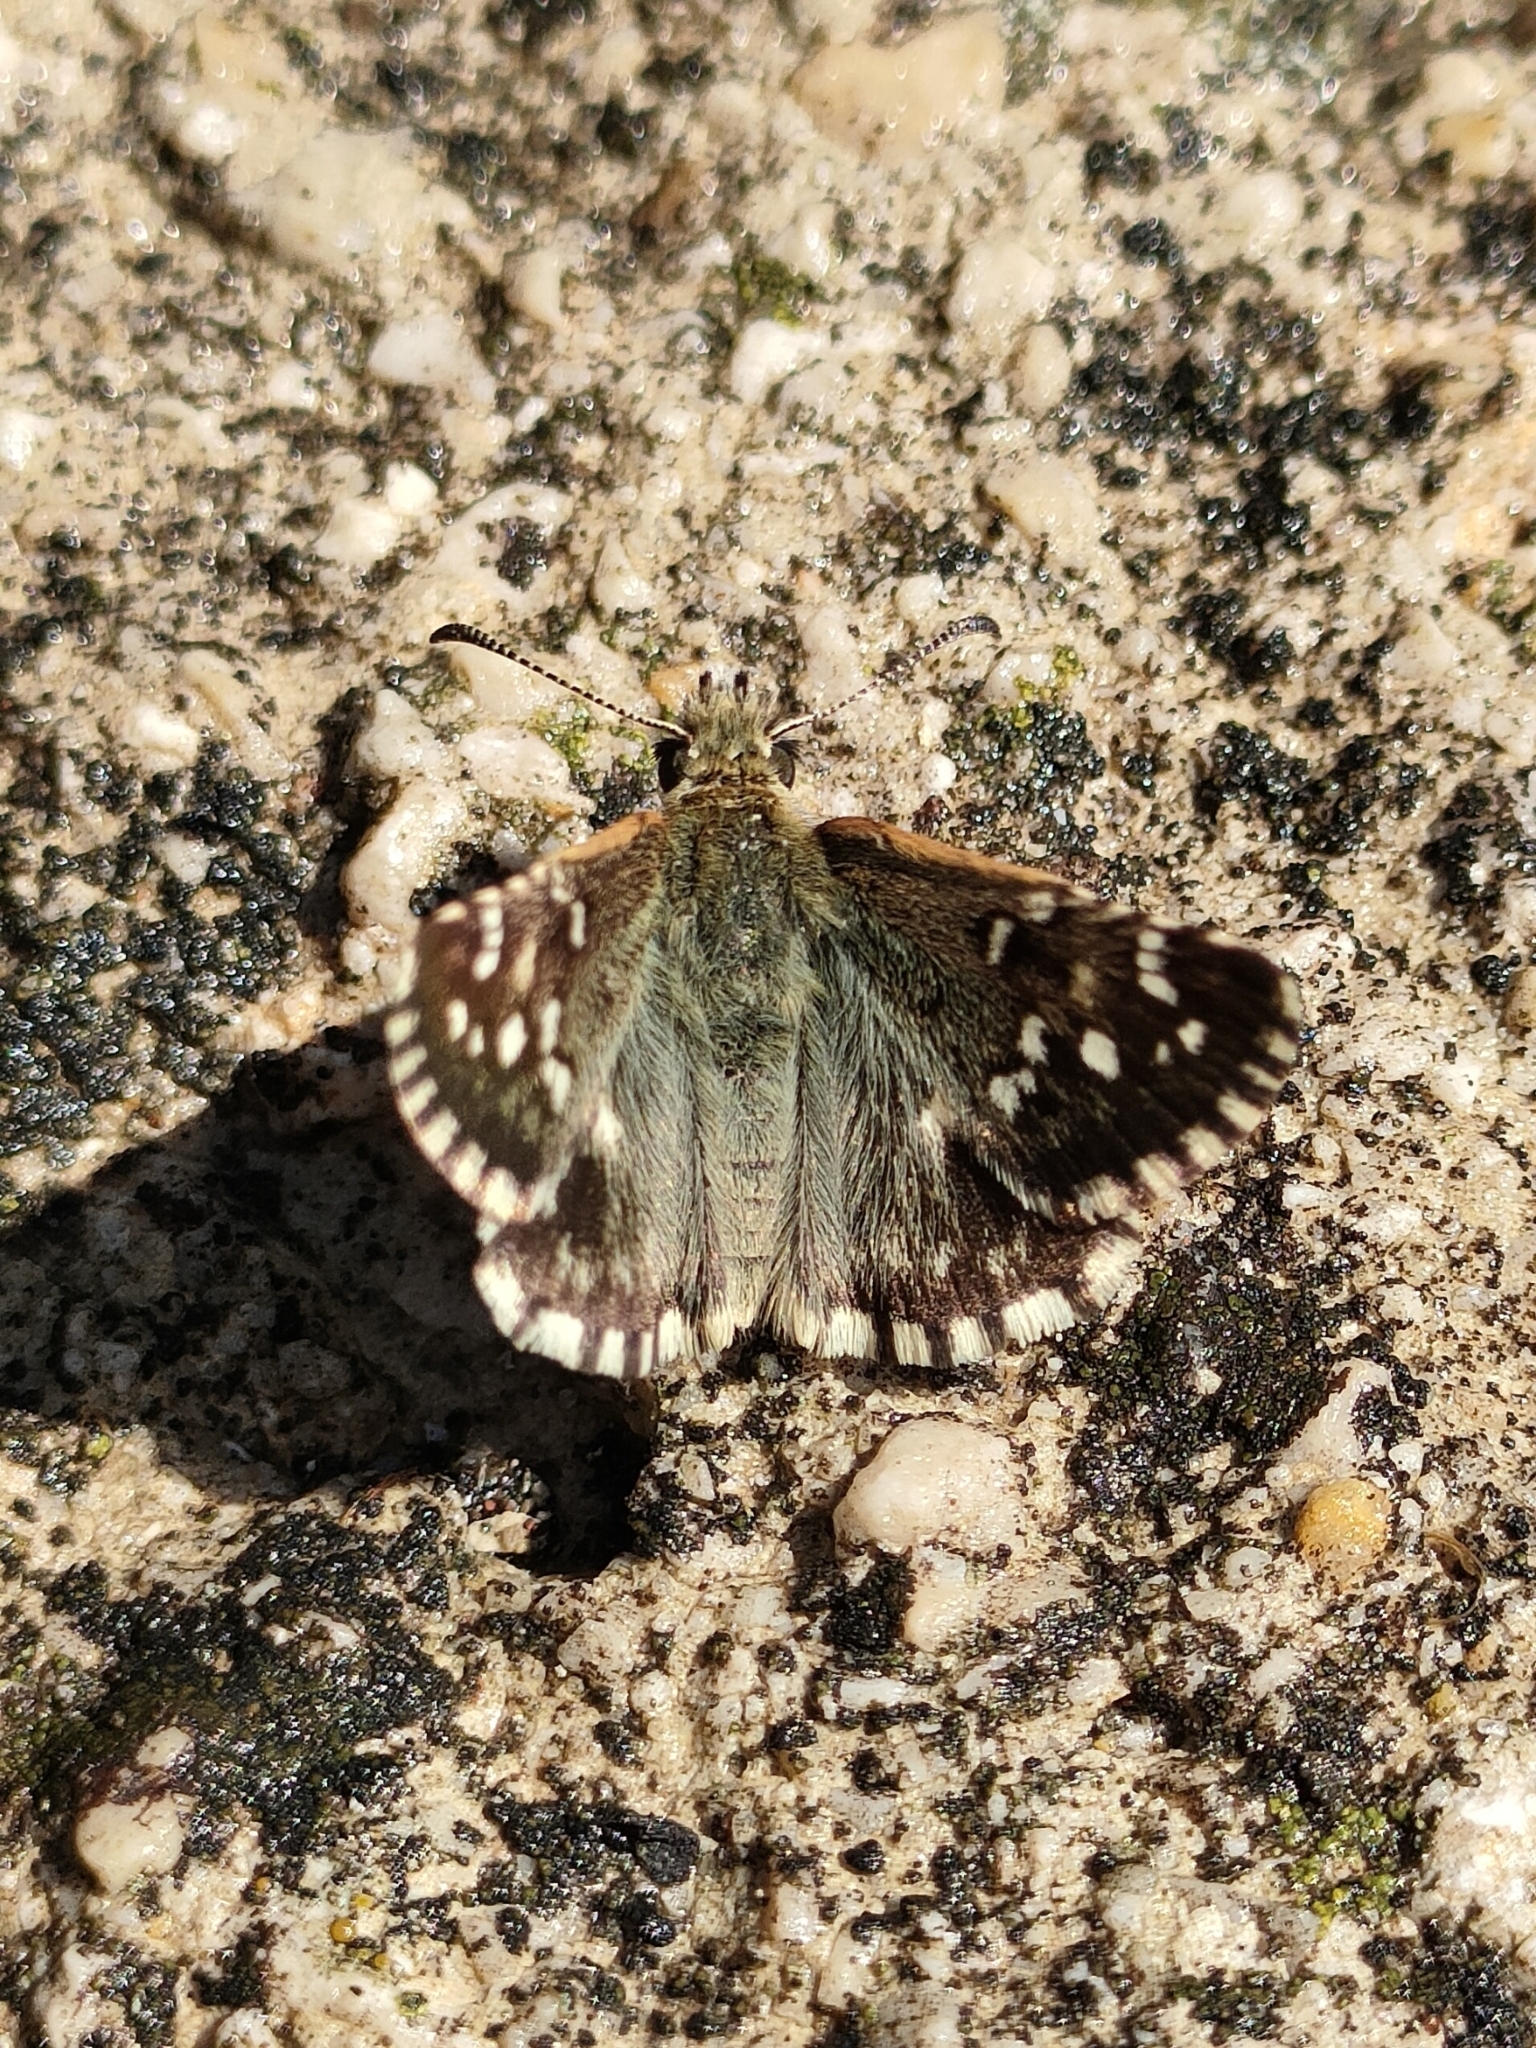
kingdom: Animalia
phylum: Arthropoda
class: Insecta
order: Lepidoptera
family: Hesperiidae
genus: Pyrgus
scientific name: Pyrgus malvoides
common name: Southern grizzled skipper
